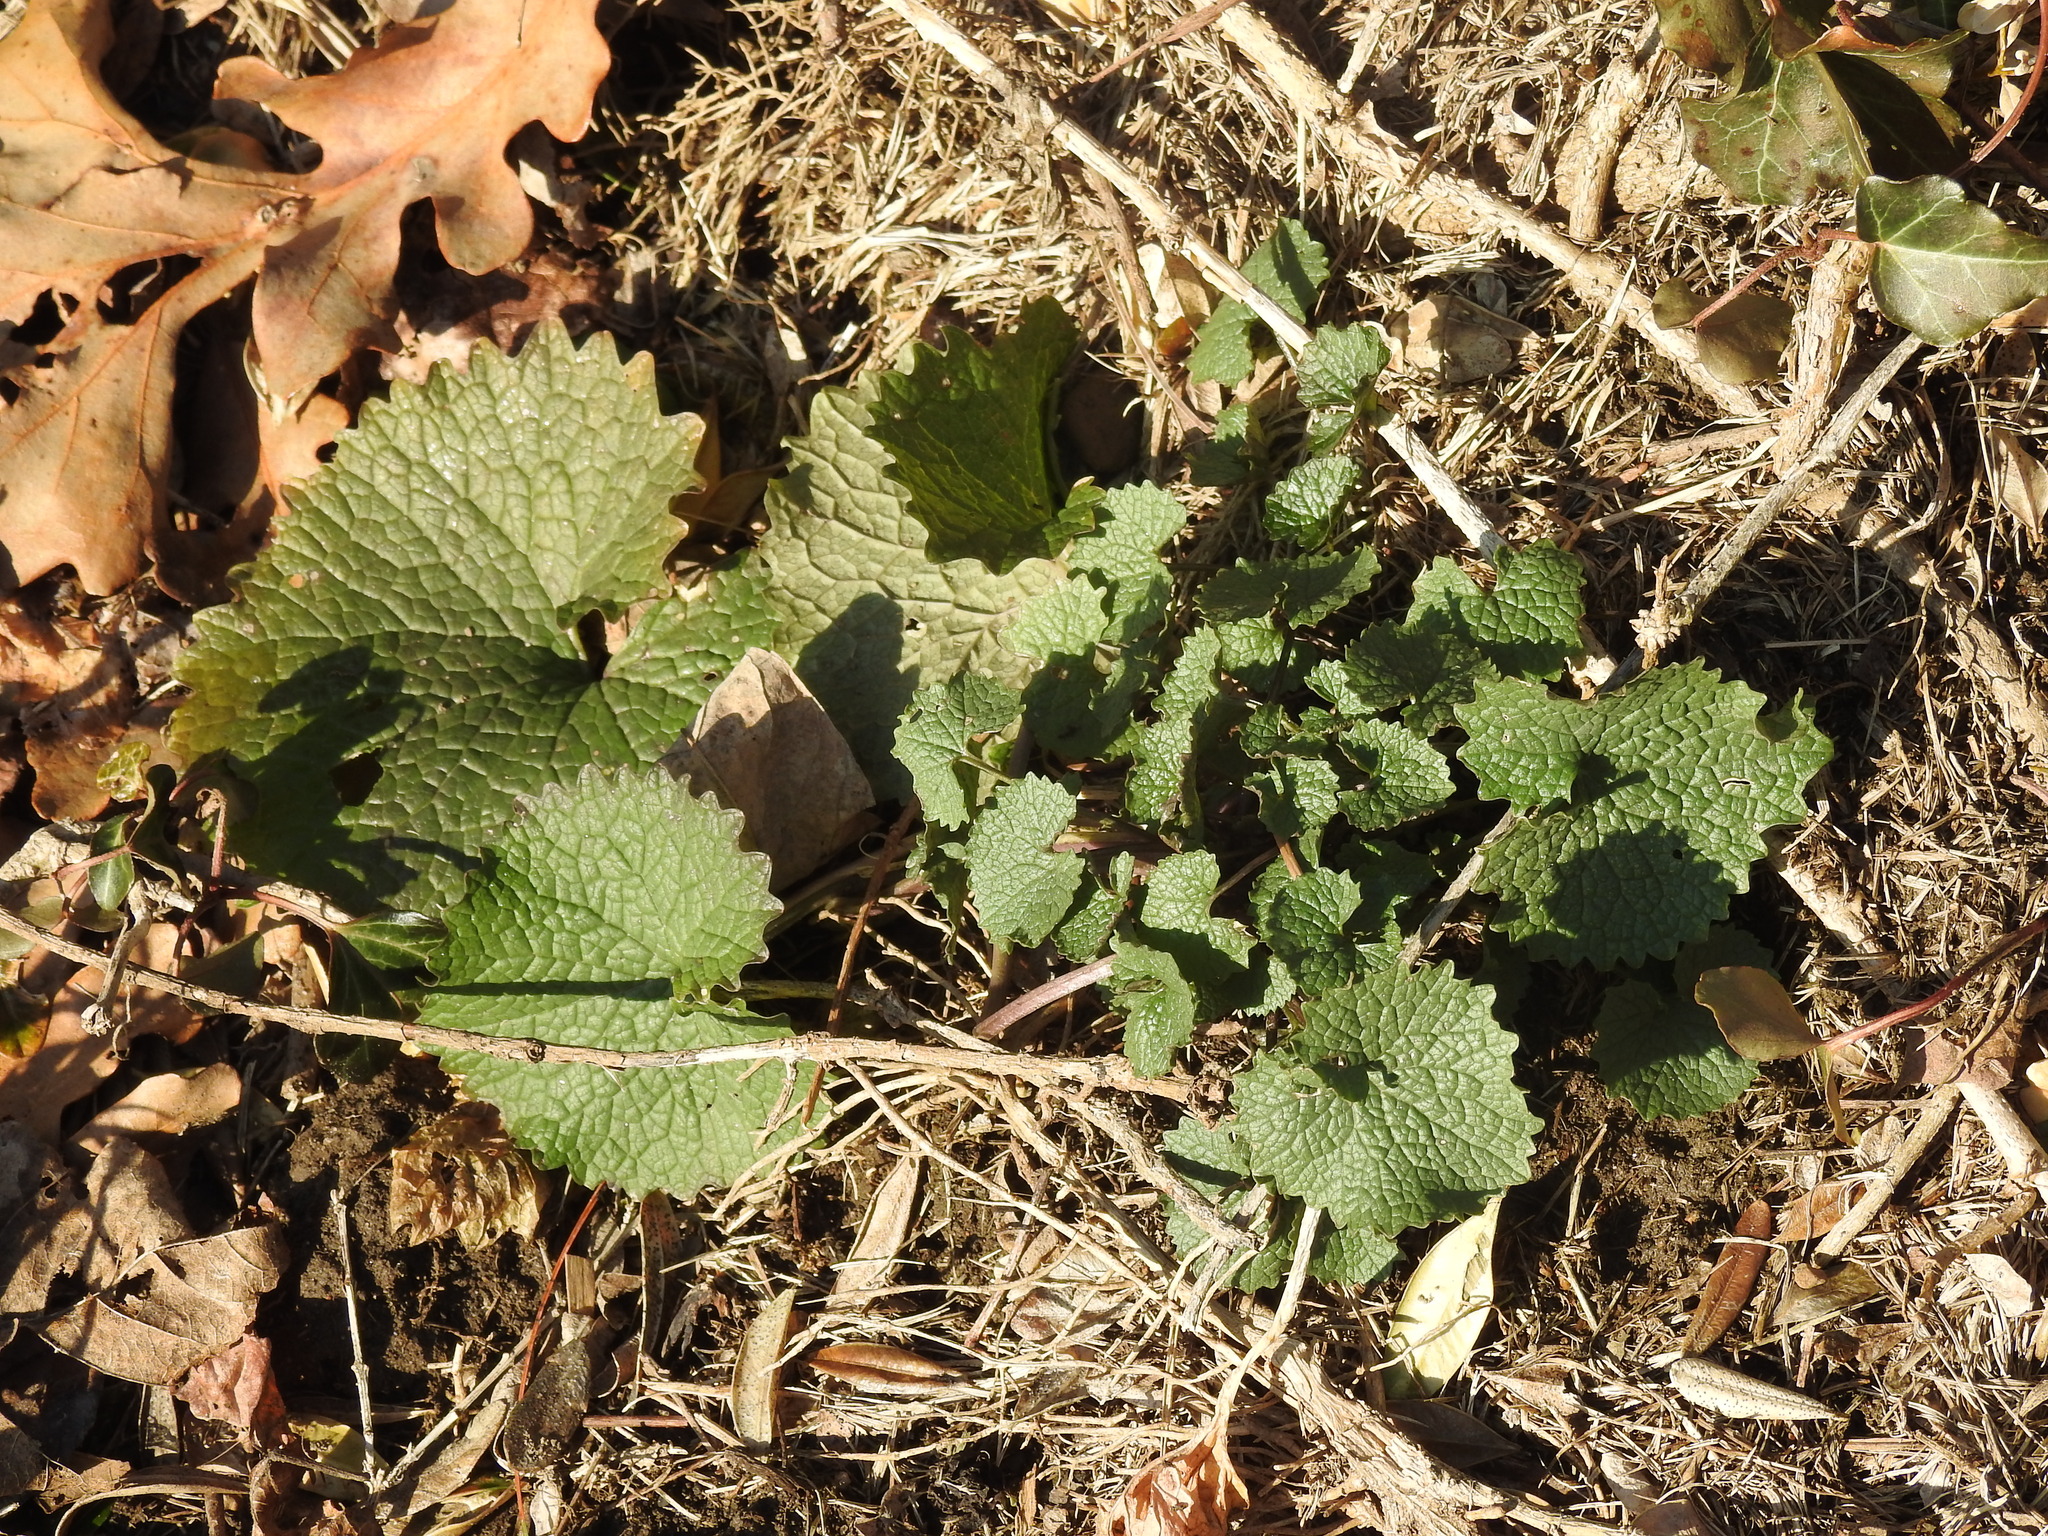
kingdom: Plantae
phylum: Tracheophyta
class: Magnoliopsida
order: Brassicales
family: Brassicaceae
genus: Alliaria
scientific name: Alliaria petiolata
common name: Garlic mustard
